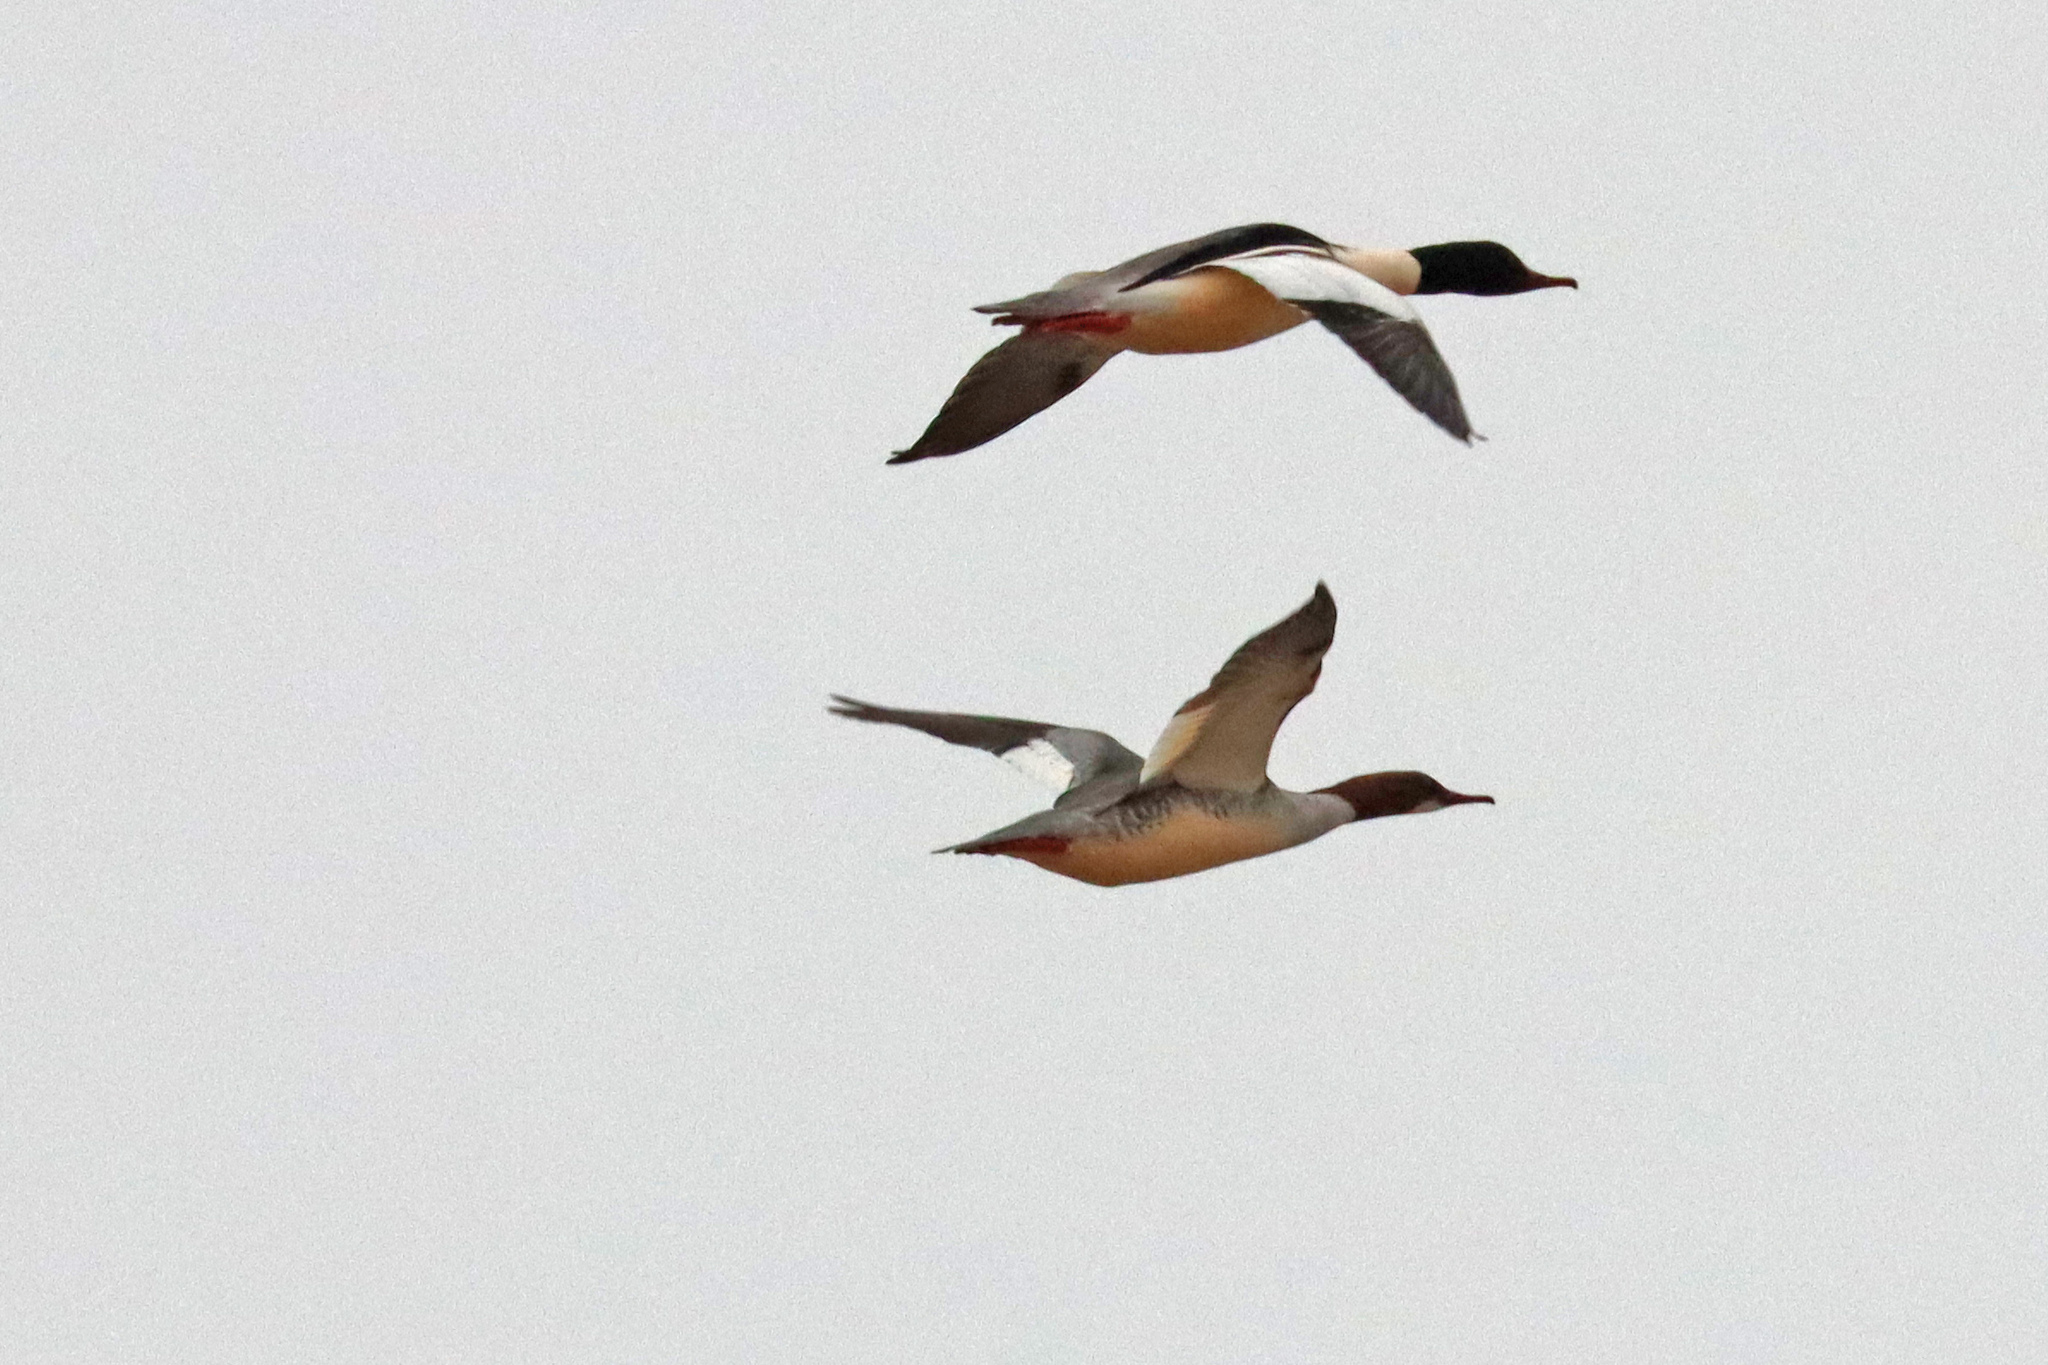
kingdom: Animalia
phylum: Chordata
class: Aves
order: Anseriformes
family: Anatidae
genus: Mergus
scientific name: Mergus merganser
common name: Common merganser
